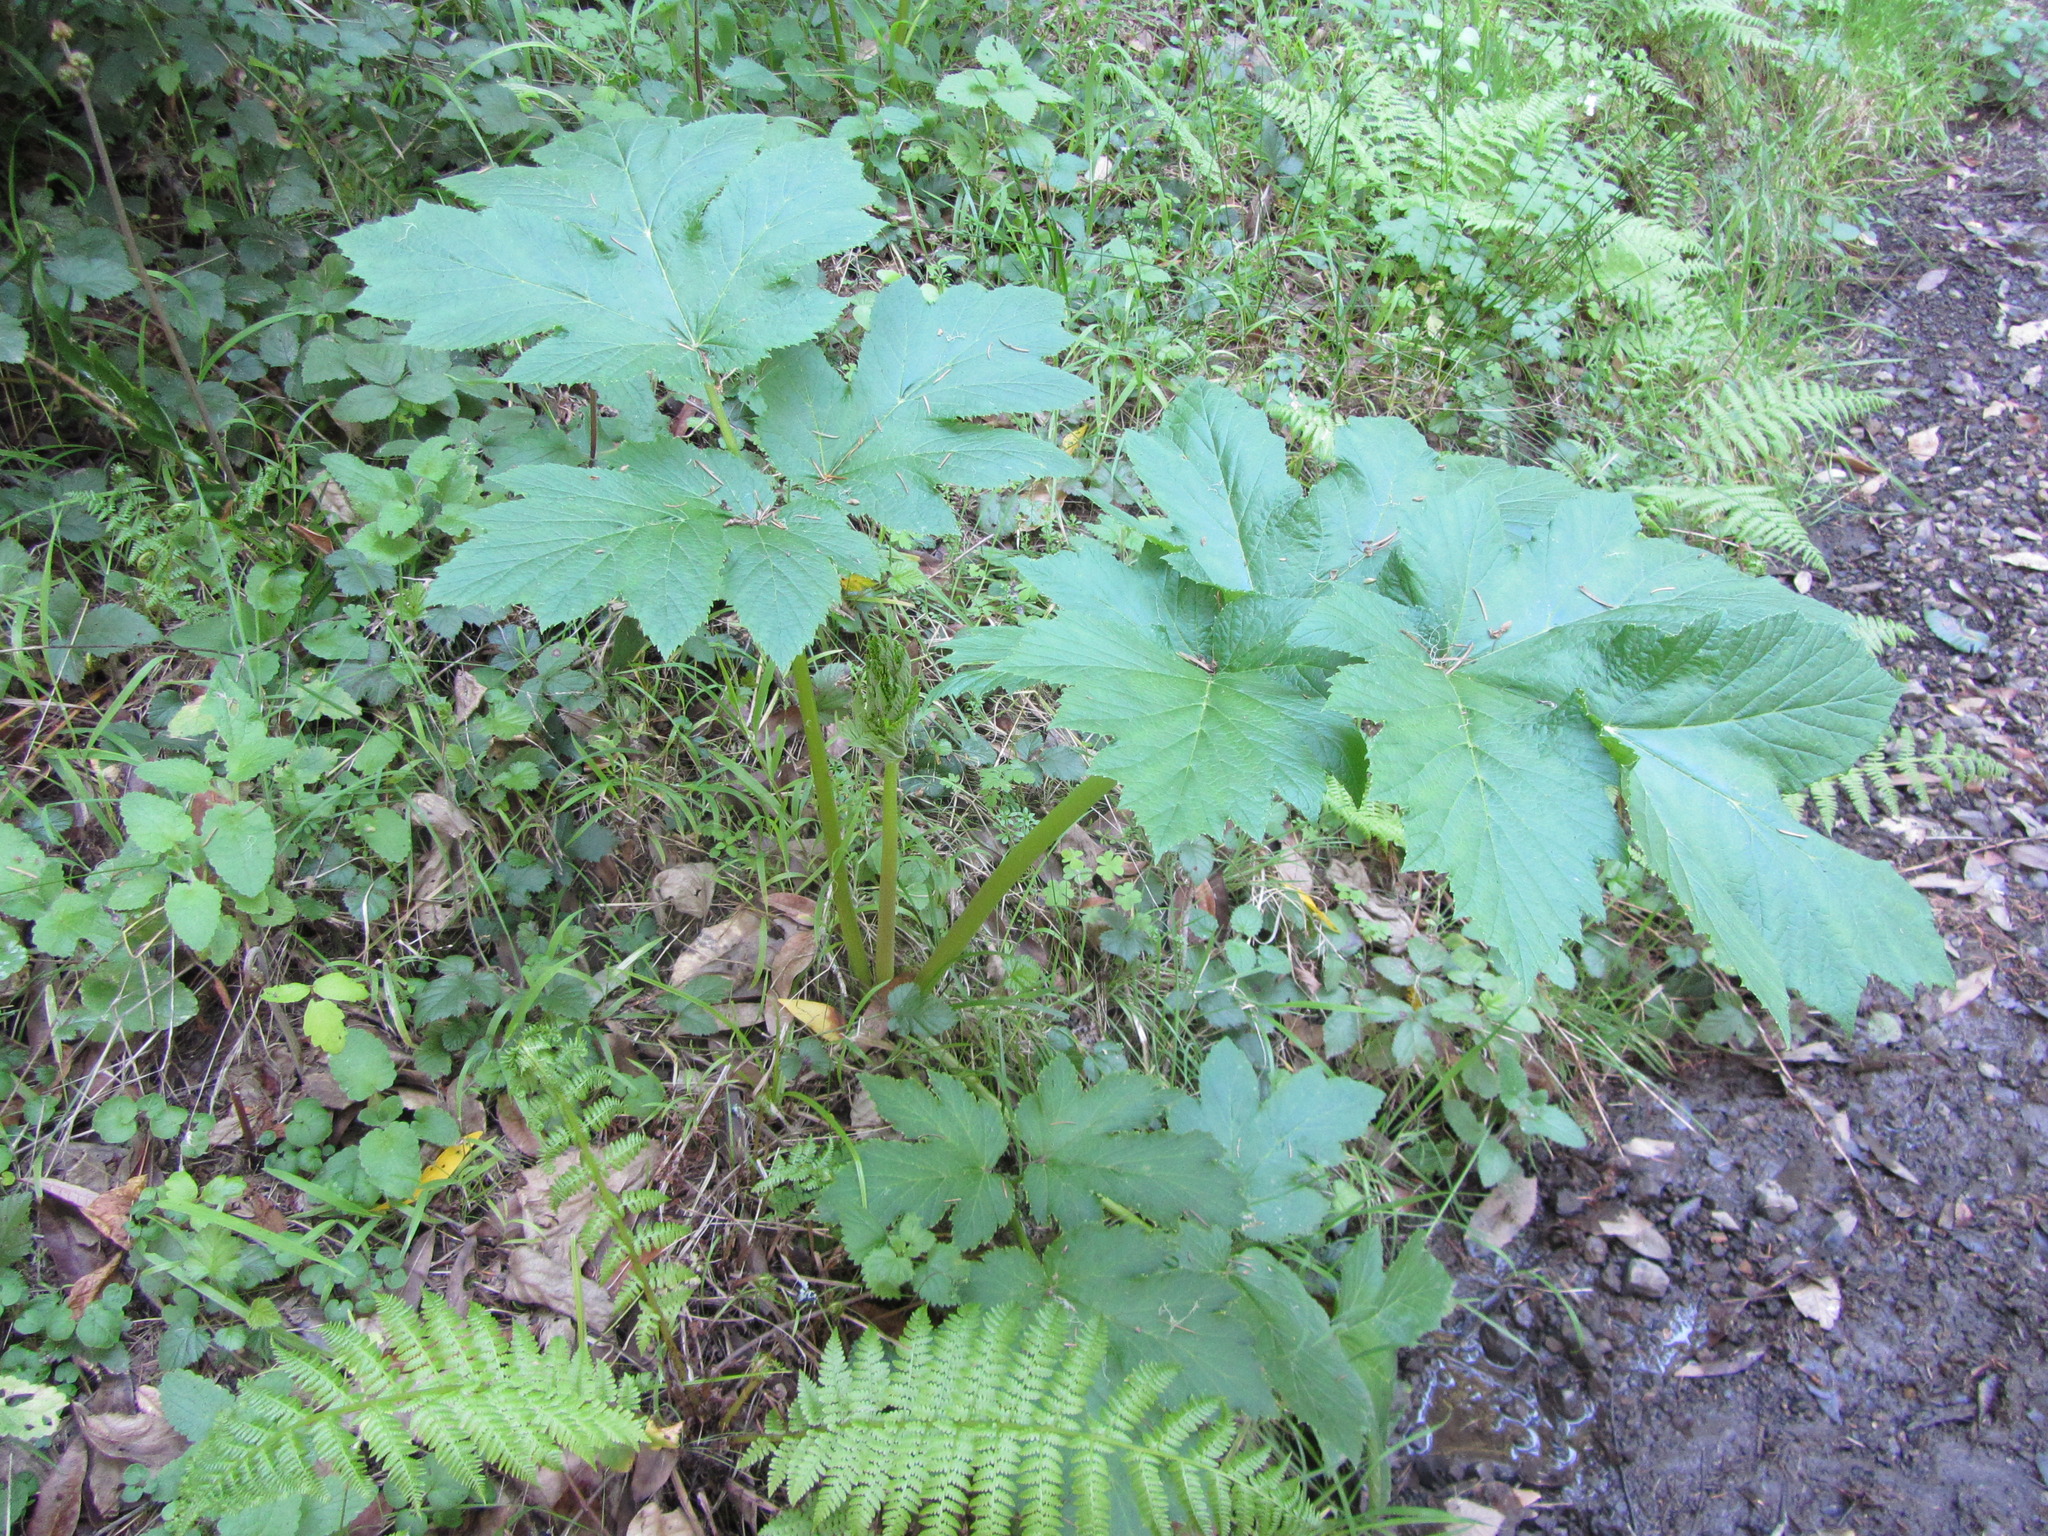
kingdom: Plantae
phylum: Tracheophyta
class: Magnoliopsida
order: Apiales
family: Apiaceae
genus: Heracleum
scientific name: Heracleum maximum
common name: American cow parsnip
